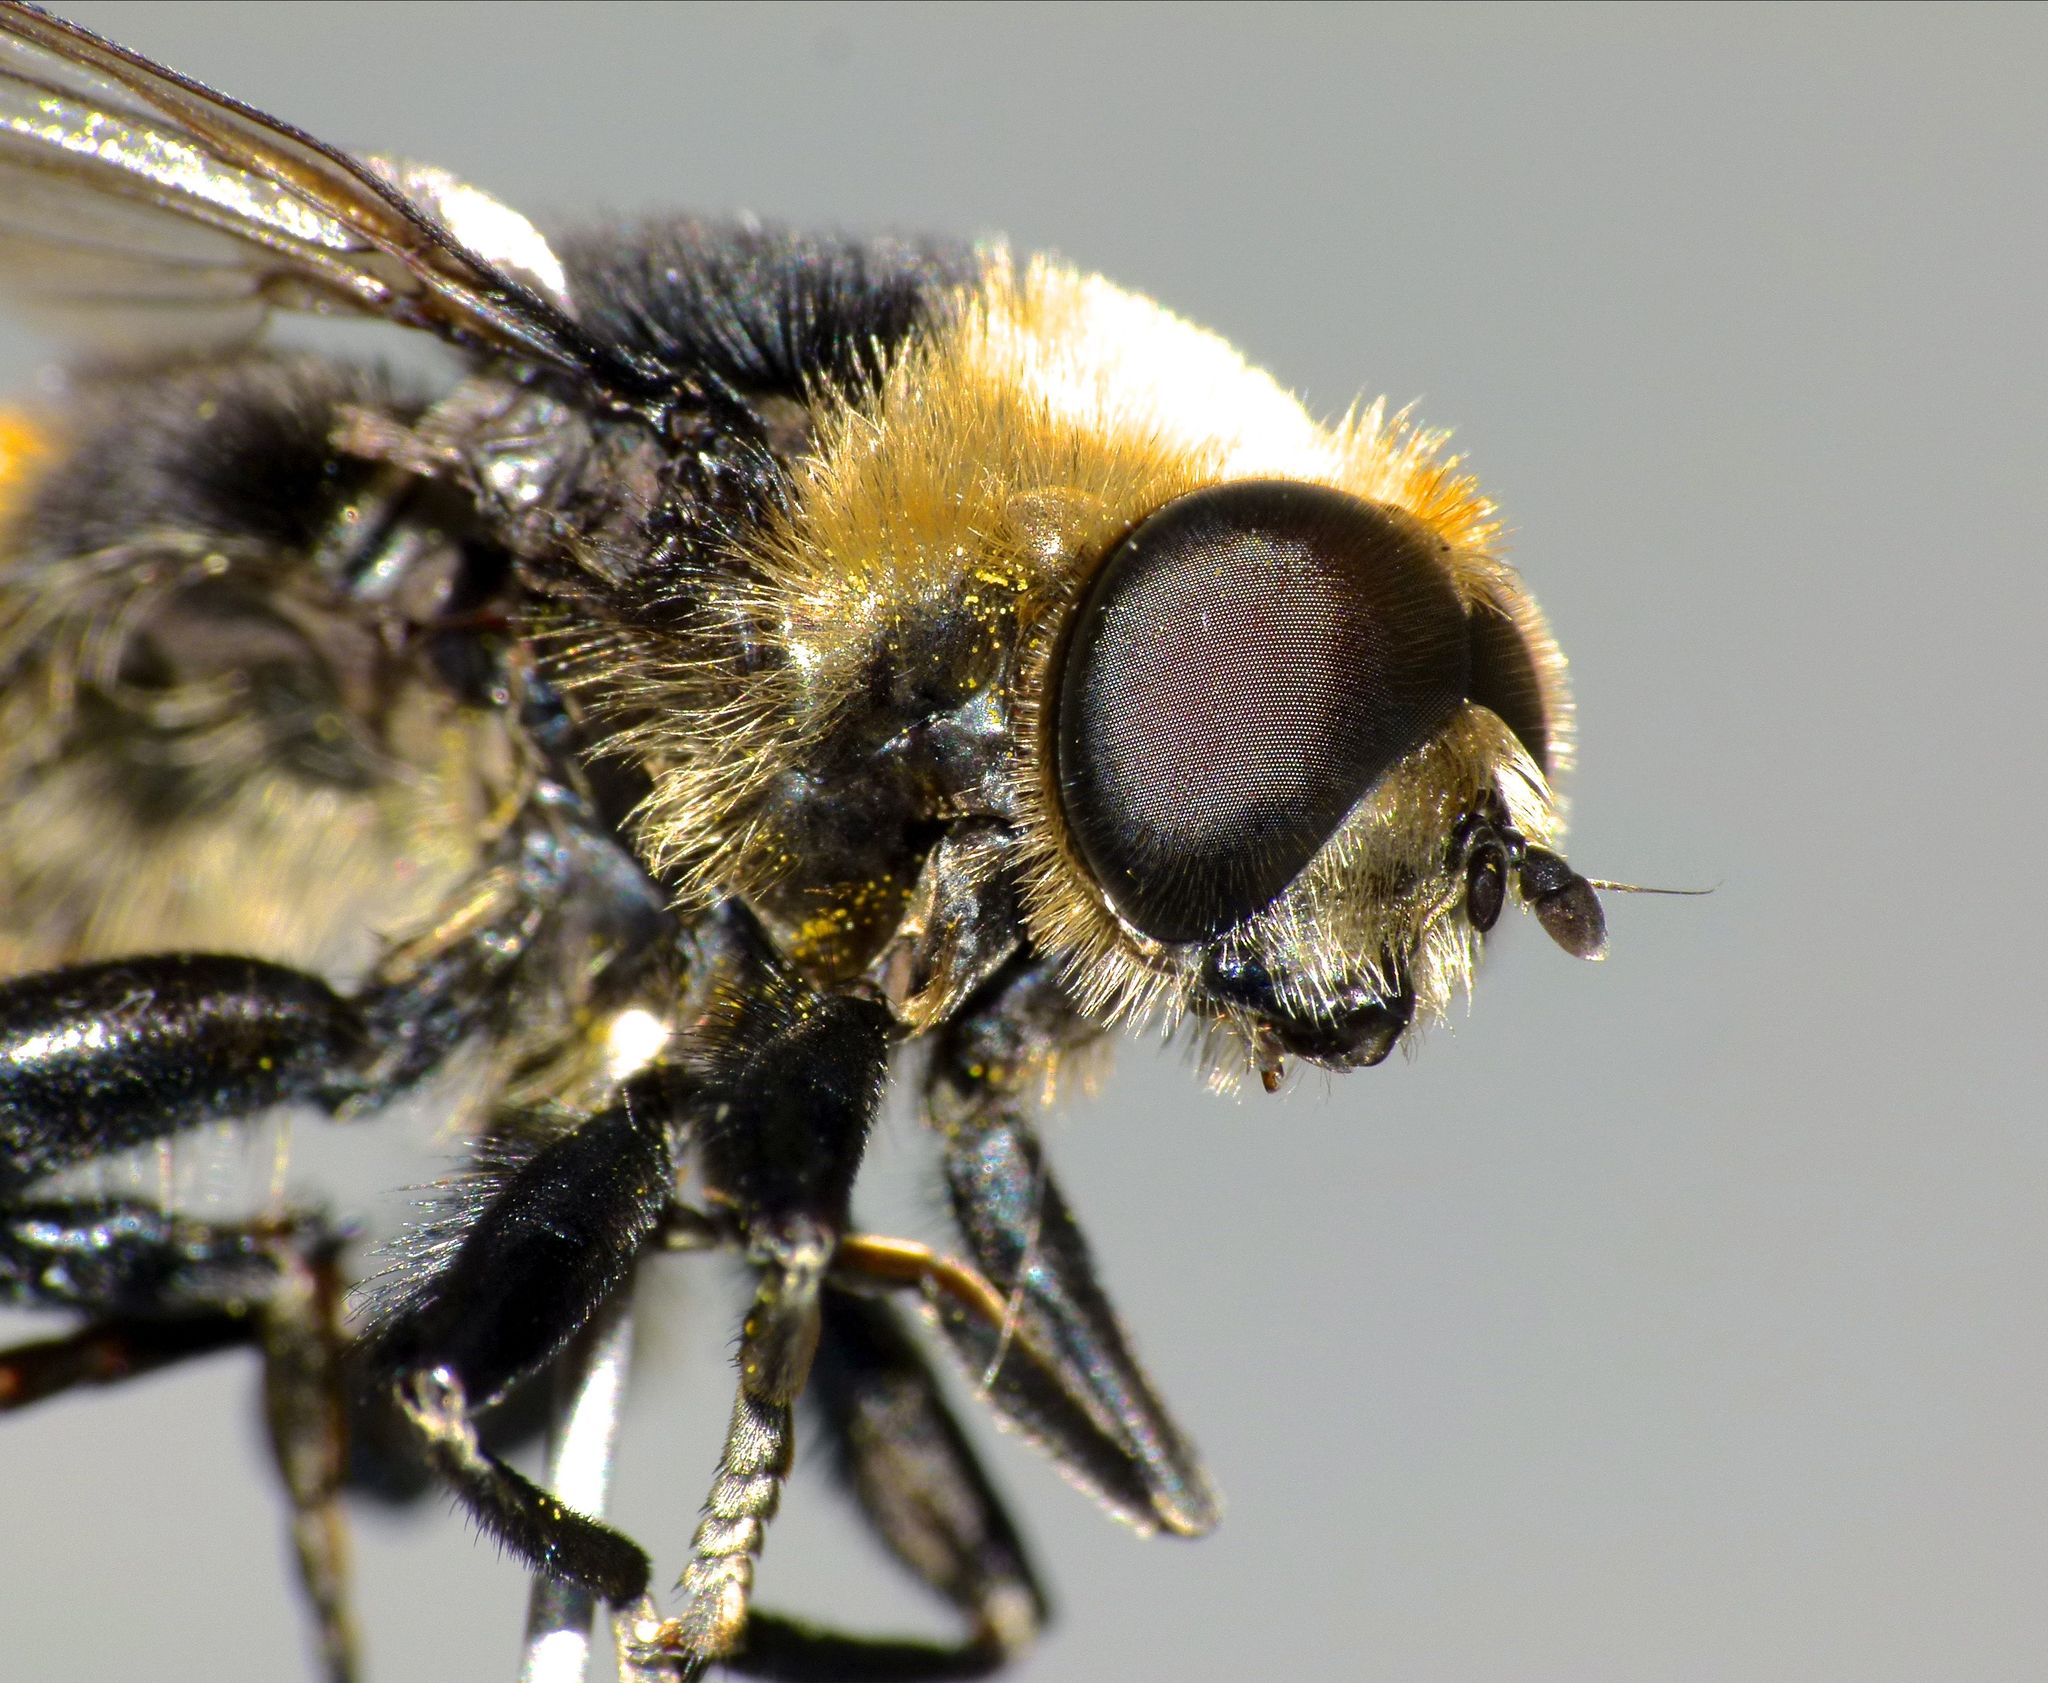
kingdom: Animalia
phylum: Arthropoda
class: Insecta
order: Diptera
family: Syrphidae
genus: Merodon
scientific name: Merodon equestris
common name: Greater bulb-fly
